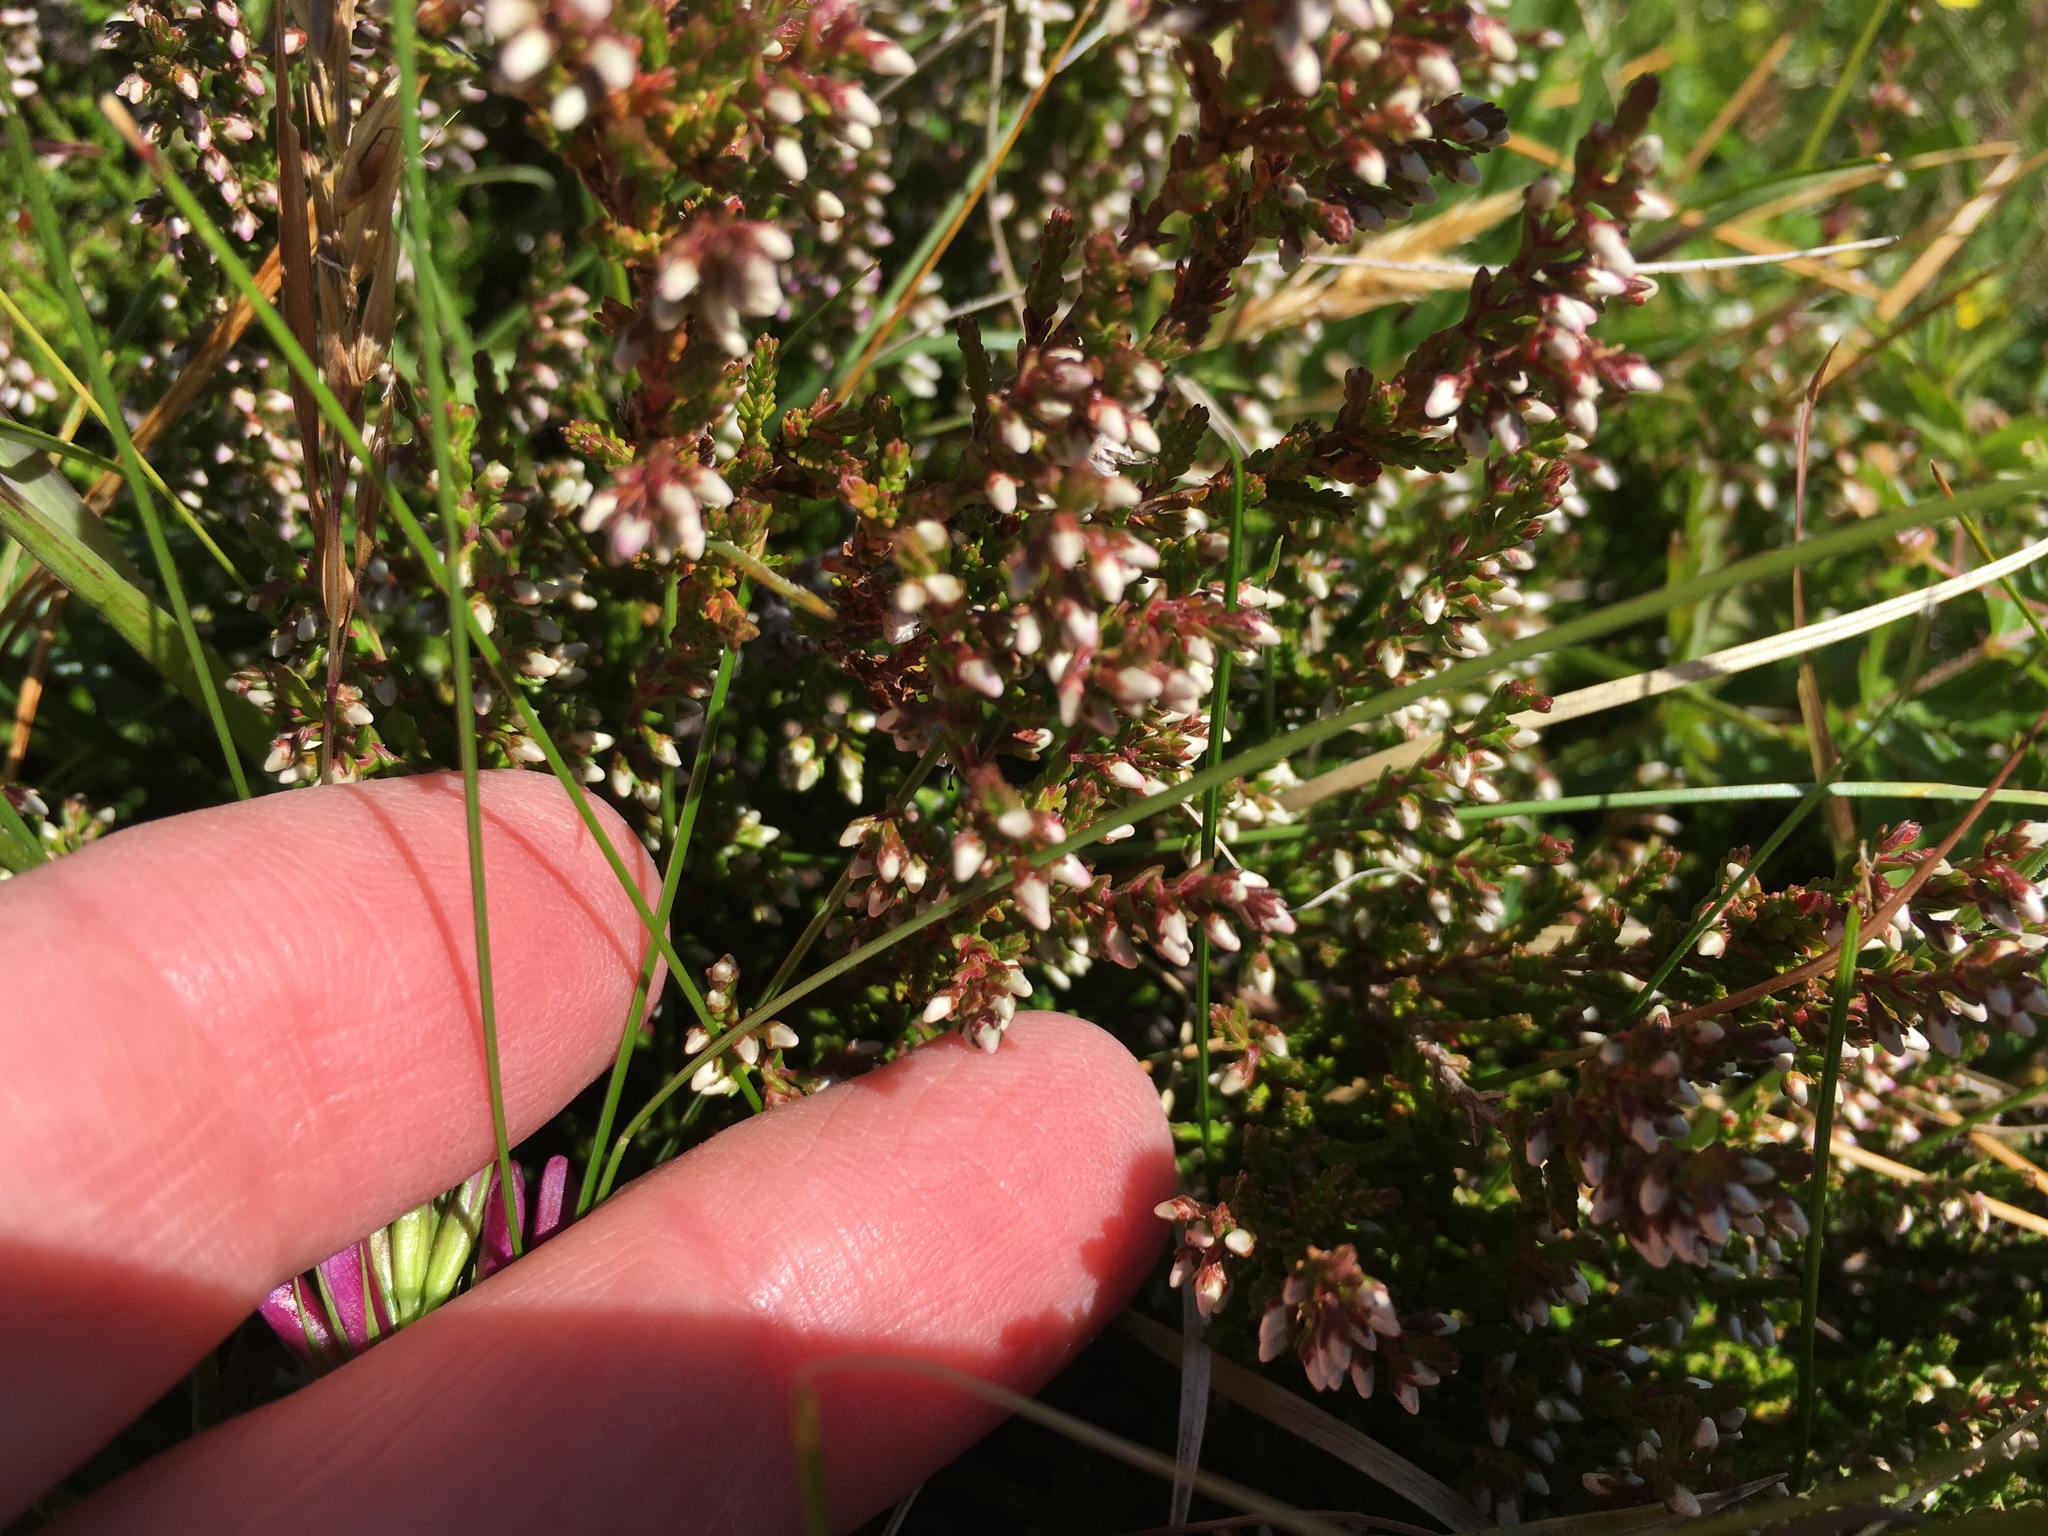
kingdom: Plantae
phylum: Tracheophyta
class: Magnoliopsida
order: Ericales
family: Ericaceae
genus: Calluna
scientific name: Calluna vulgaris
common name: Heather
